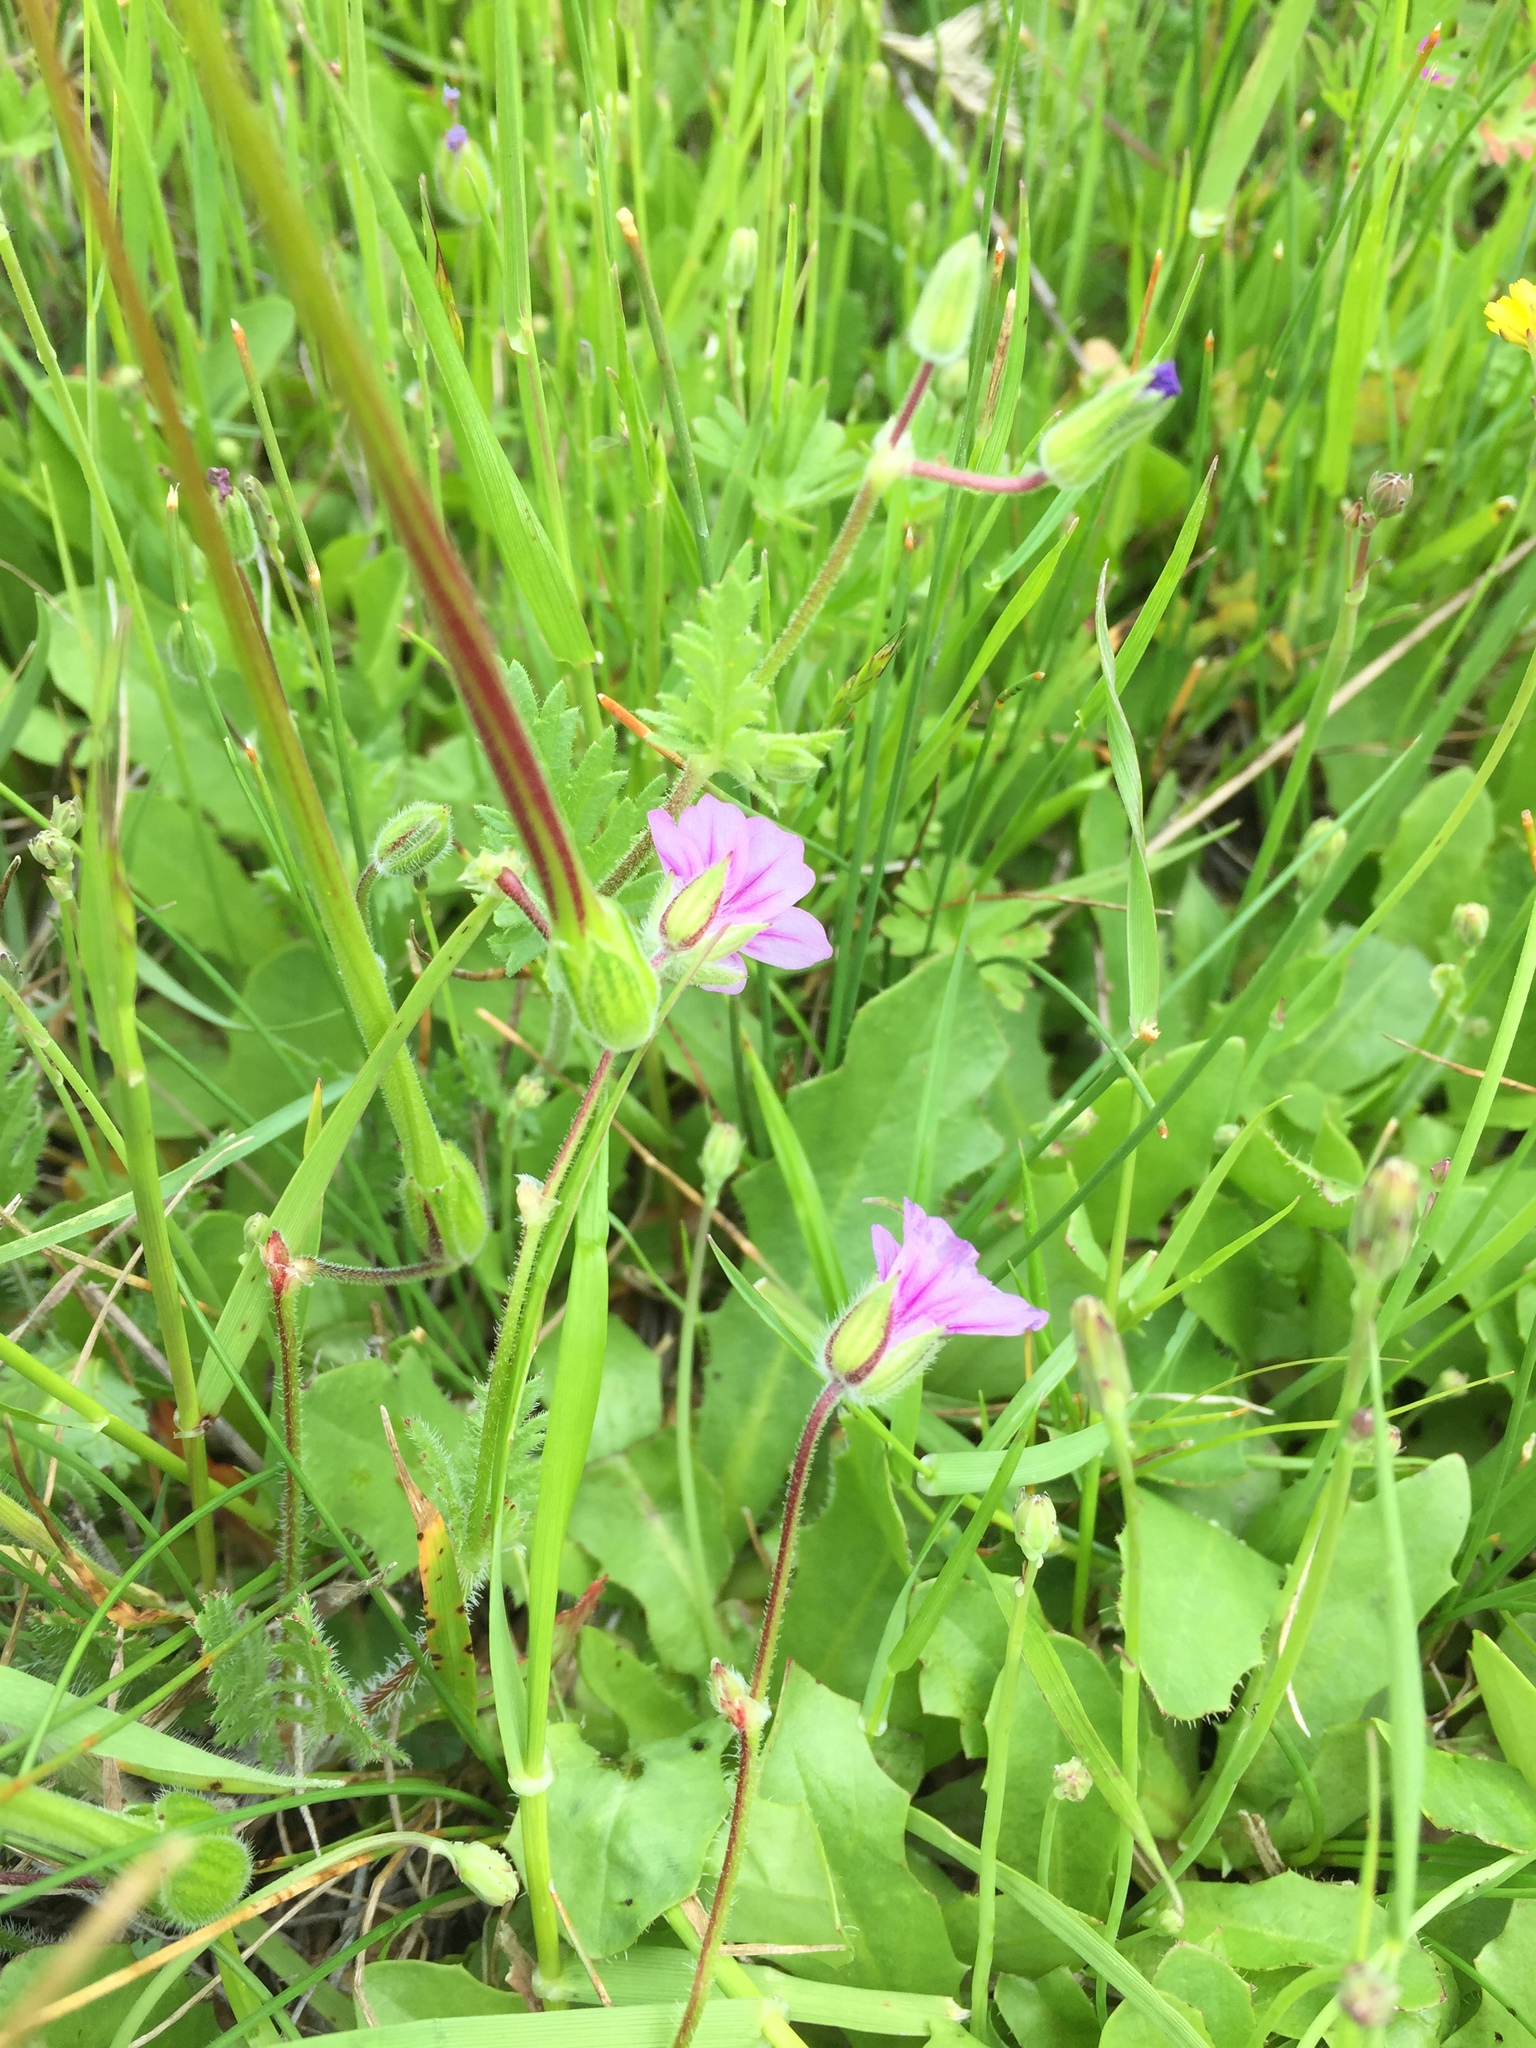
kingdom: Plantae
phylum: Tracheophyta
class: Magnoliopsida
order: Geraniales
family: Geraniaceae
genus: Erodium
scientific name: Erodium botrys
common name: Mediterranean stork's-bill
